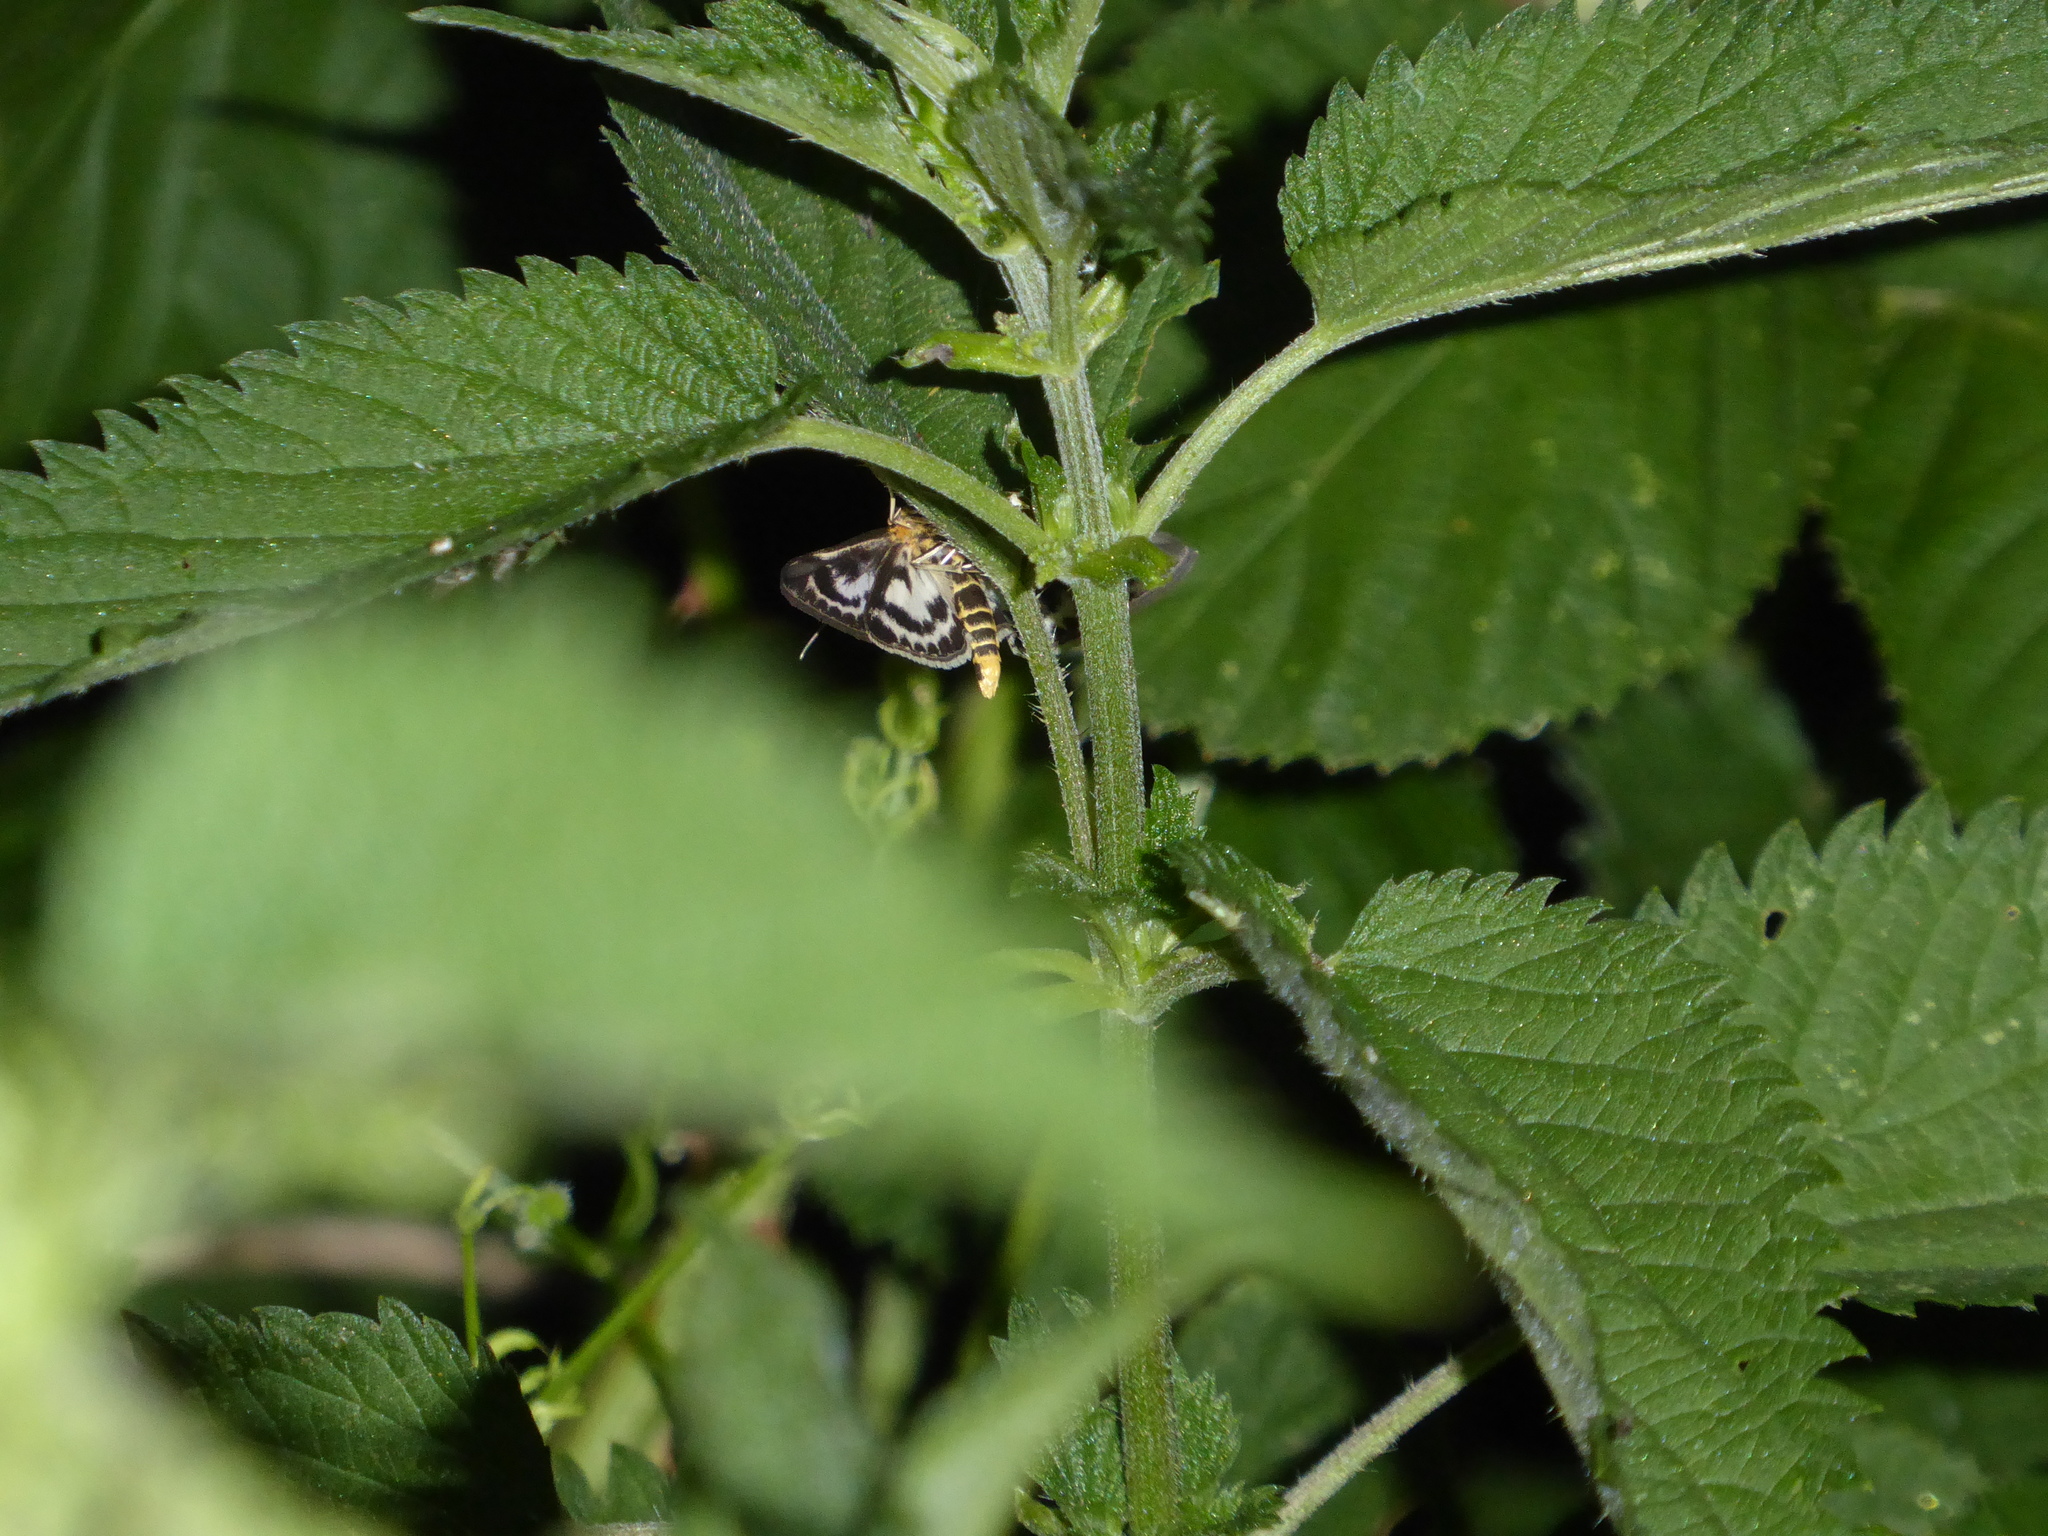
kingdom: Animalia
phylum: Arthropoda
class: Insecta
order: Lepidoptera
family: Crambidae
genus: Anania
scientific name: Anania hortulata
